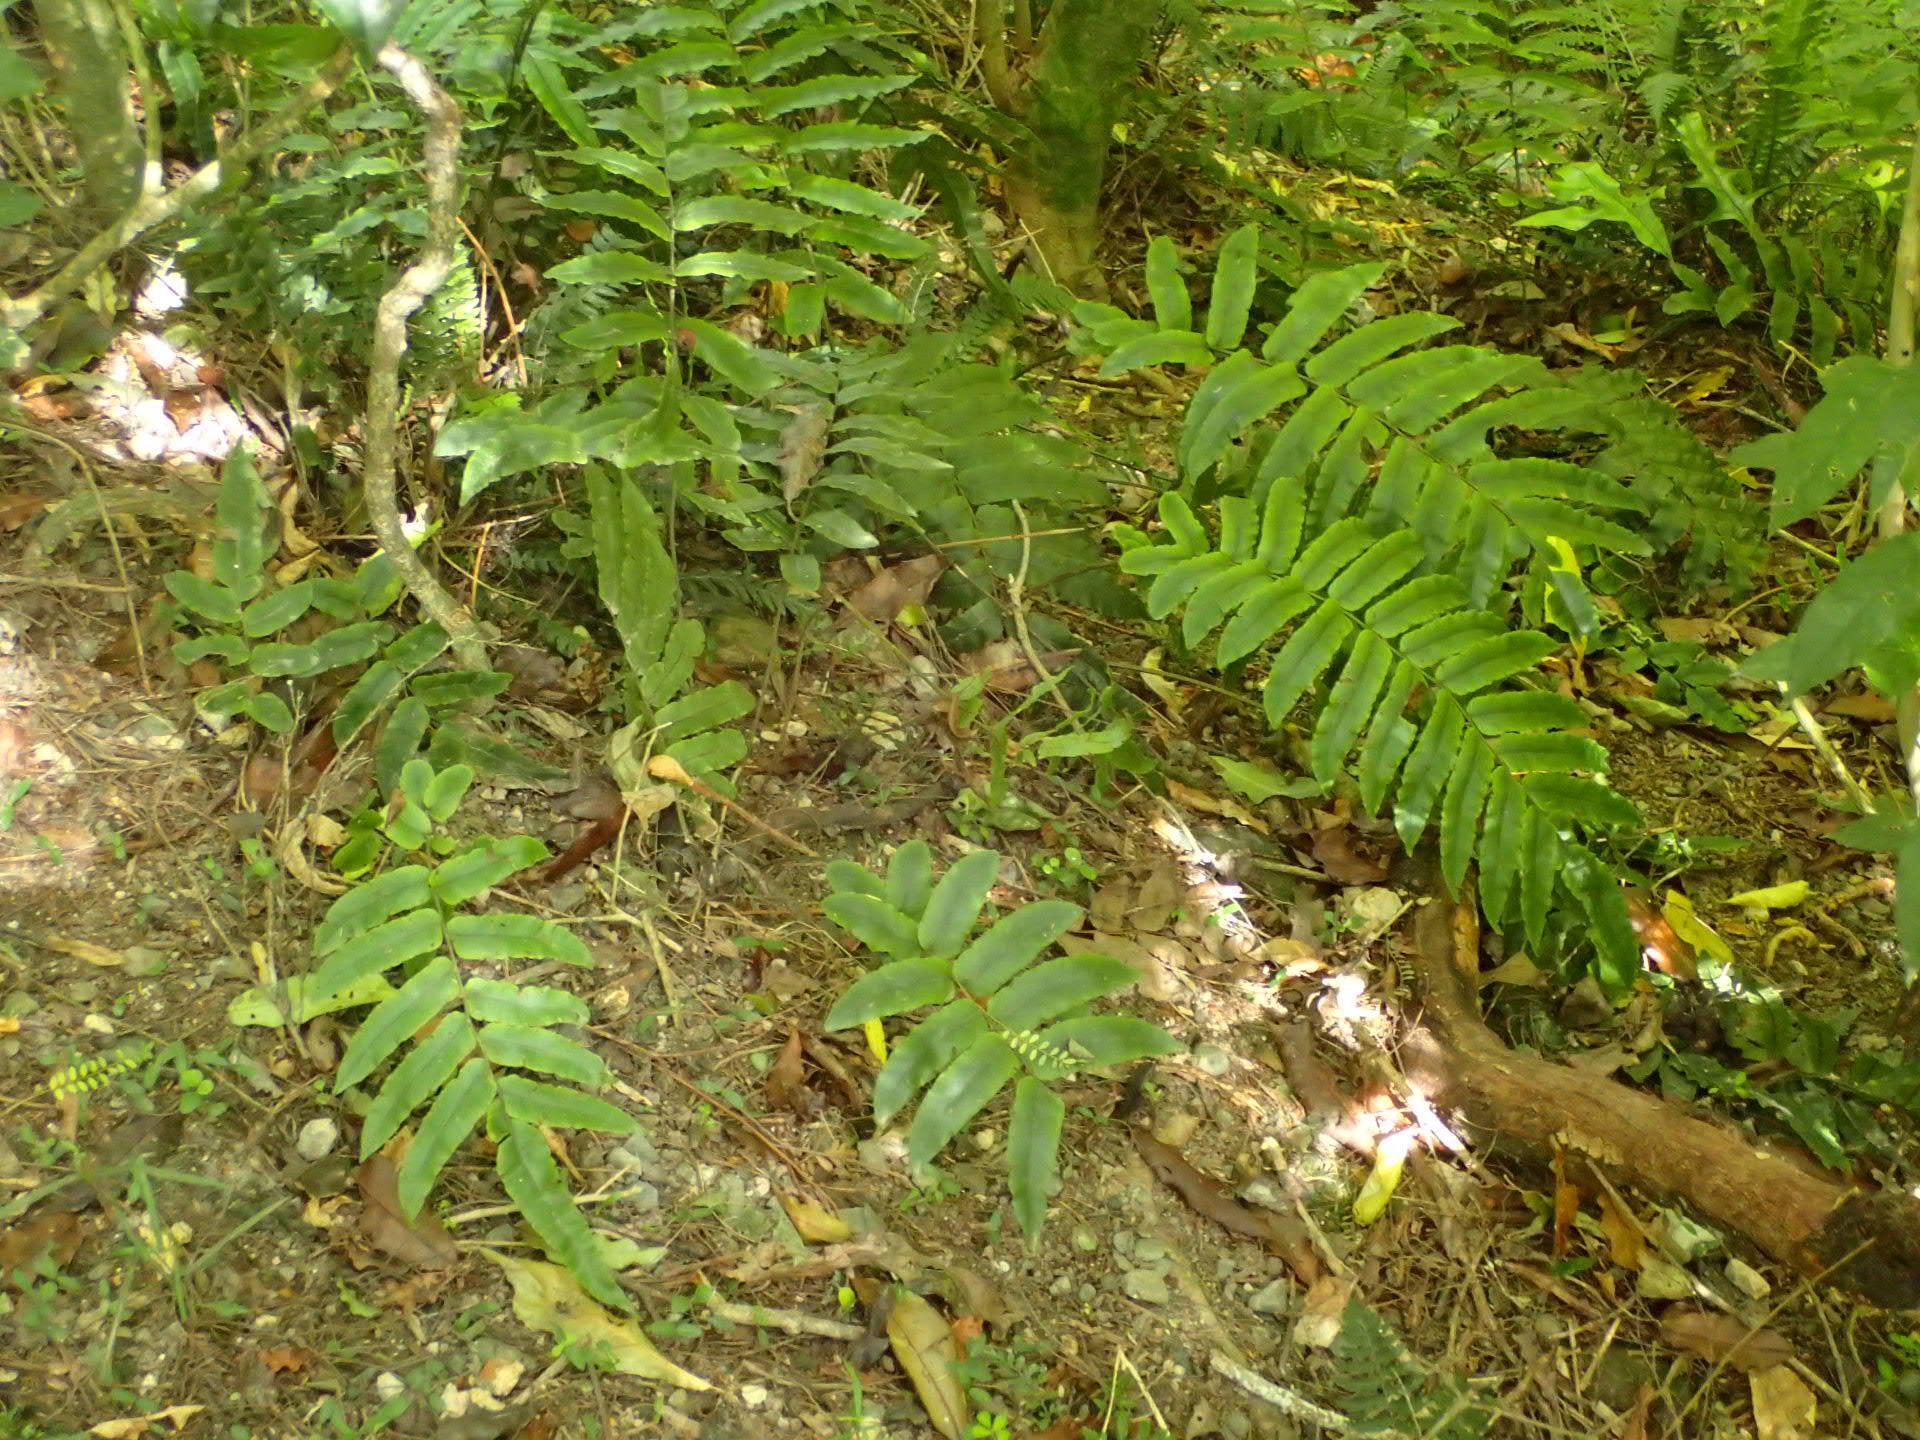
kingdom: Plantae
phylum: Tracheophyta
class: Polypodiopsida
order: Polypodiales
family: Blechnaceae
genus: Parablechnum
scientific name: Parablechnum procerum
